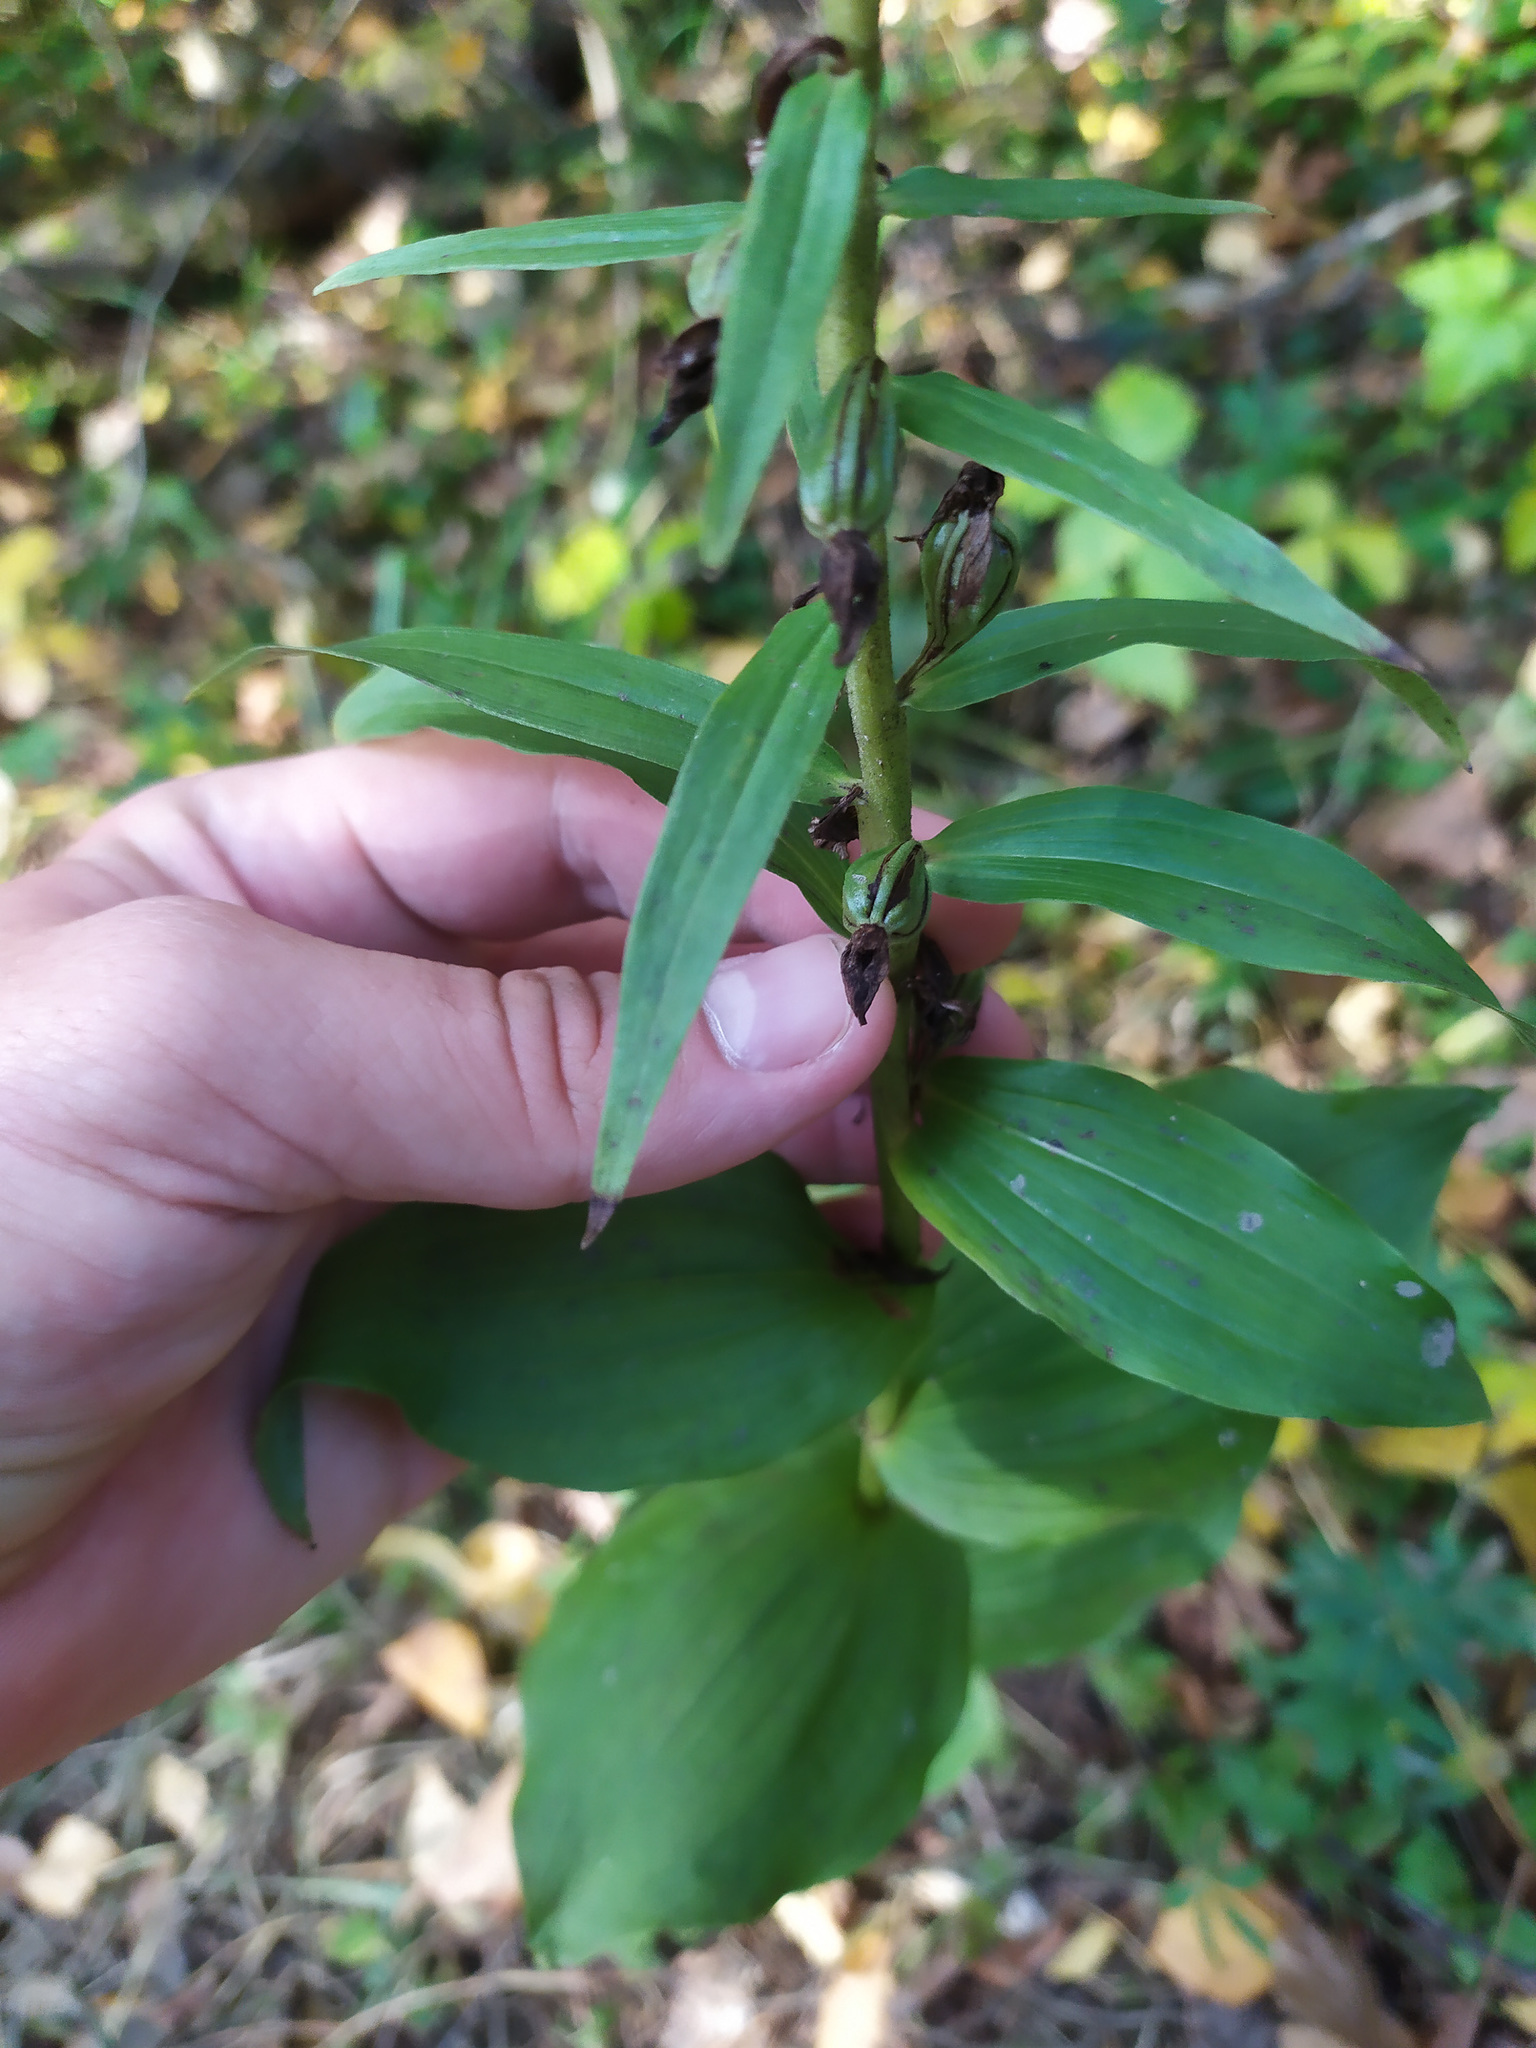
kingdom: Plantae
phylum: Tracheophyta
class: Liliopsida
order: Asparagales
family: Orchidaceae
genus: Epipactis
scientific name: Epipactis helleborine
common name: Broad-leaved helleborine
